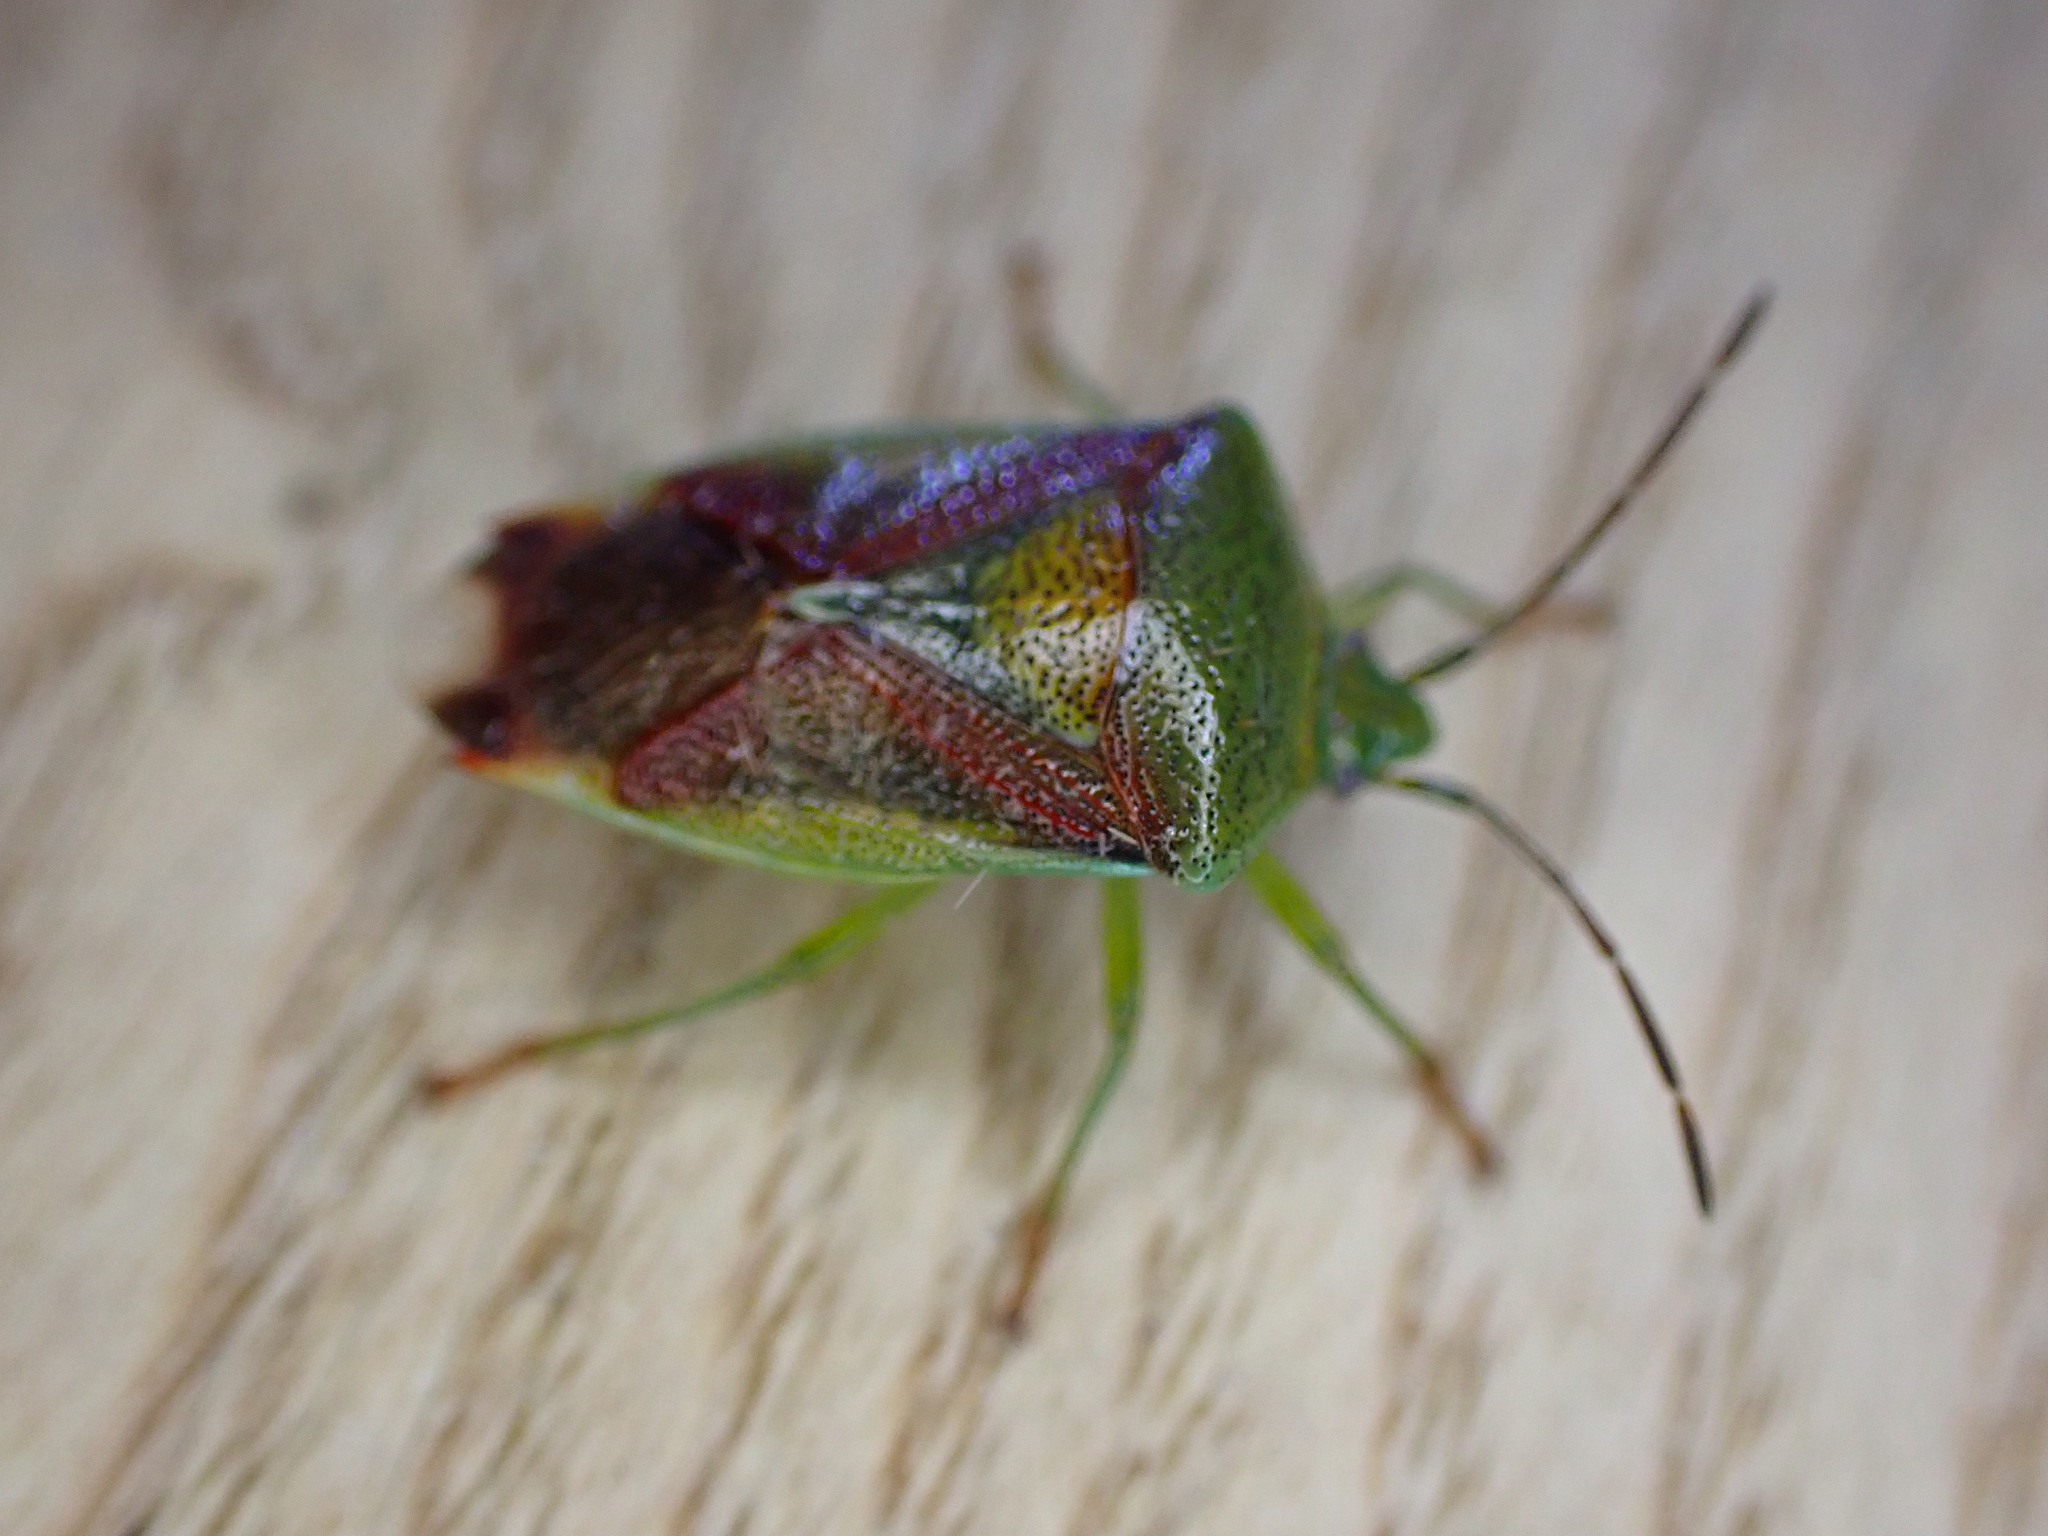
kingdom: Animalia
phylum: Arthropoda
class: Insecta
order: Hemiptera
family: Acanthosomatidae
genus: Elasmostethus
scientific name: Elasmostethus interstinctus
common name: Birch shieldbug
